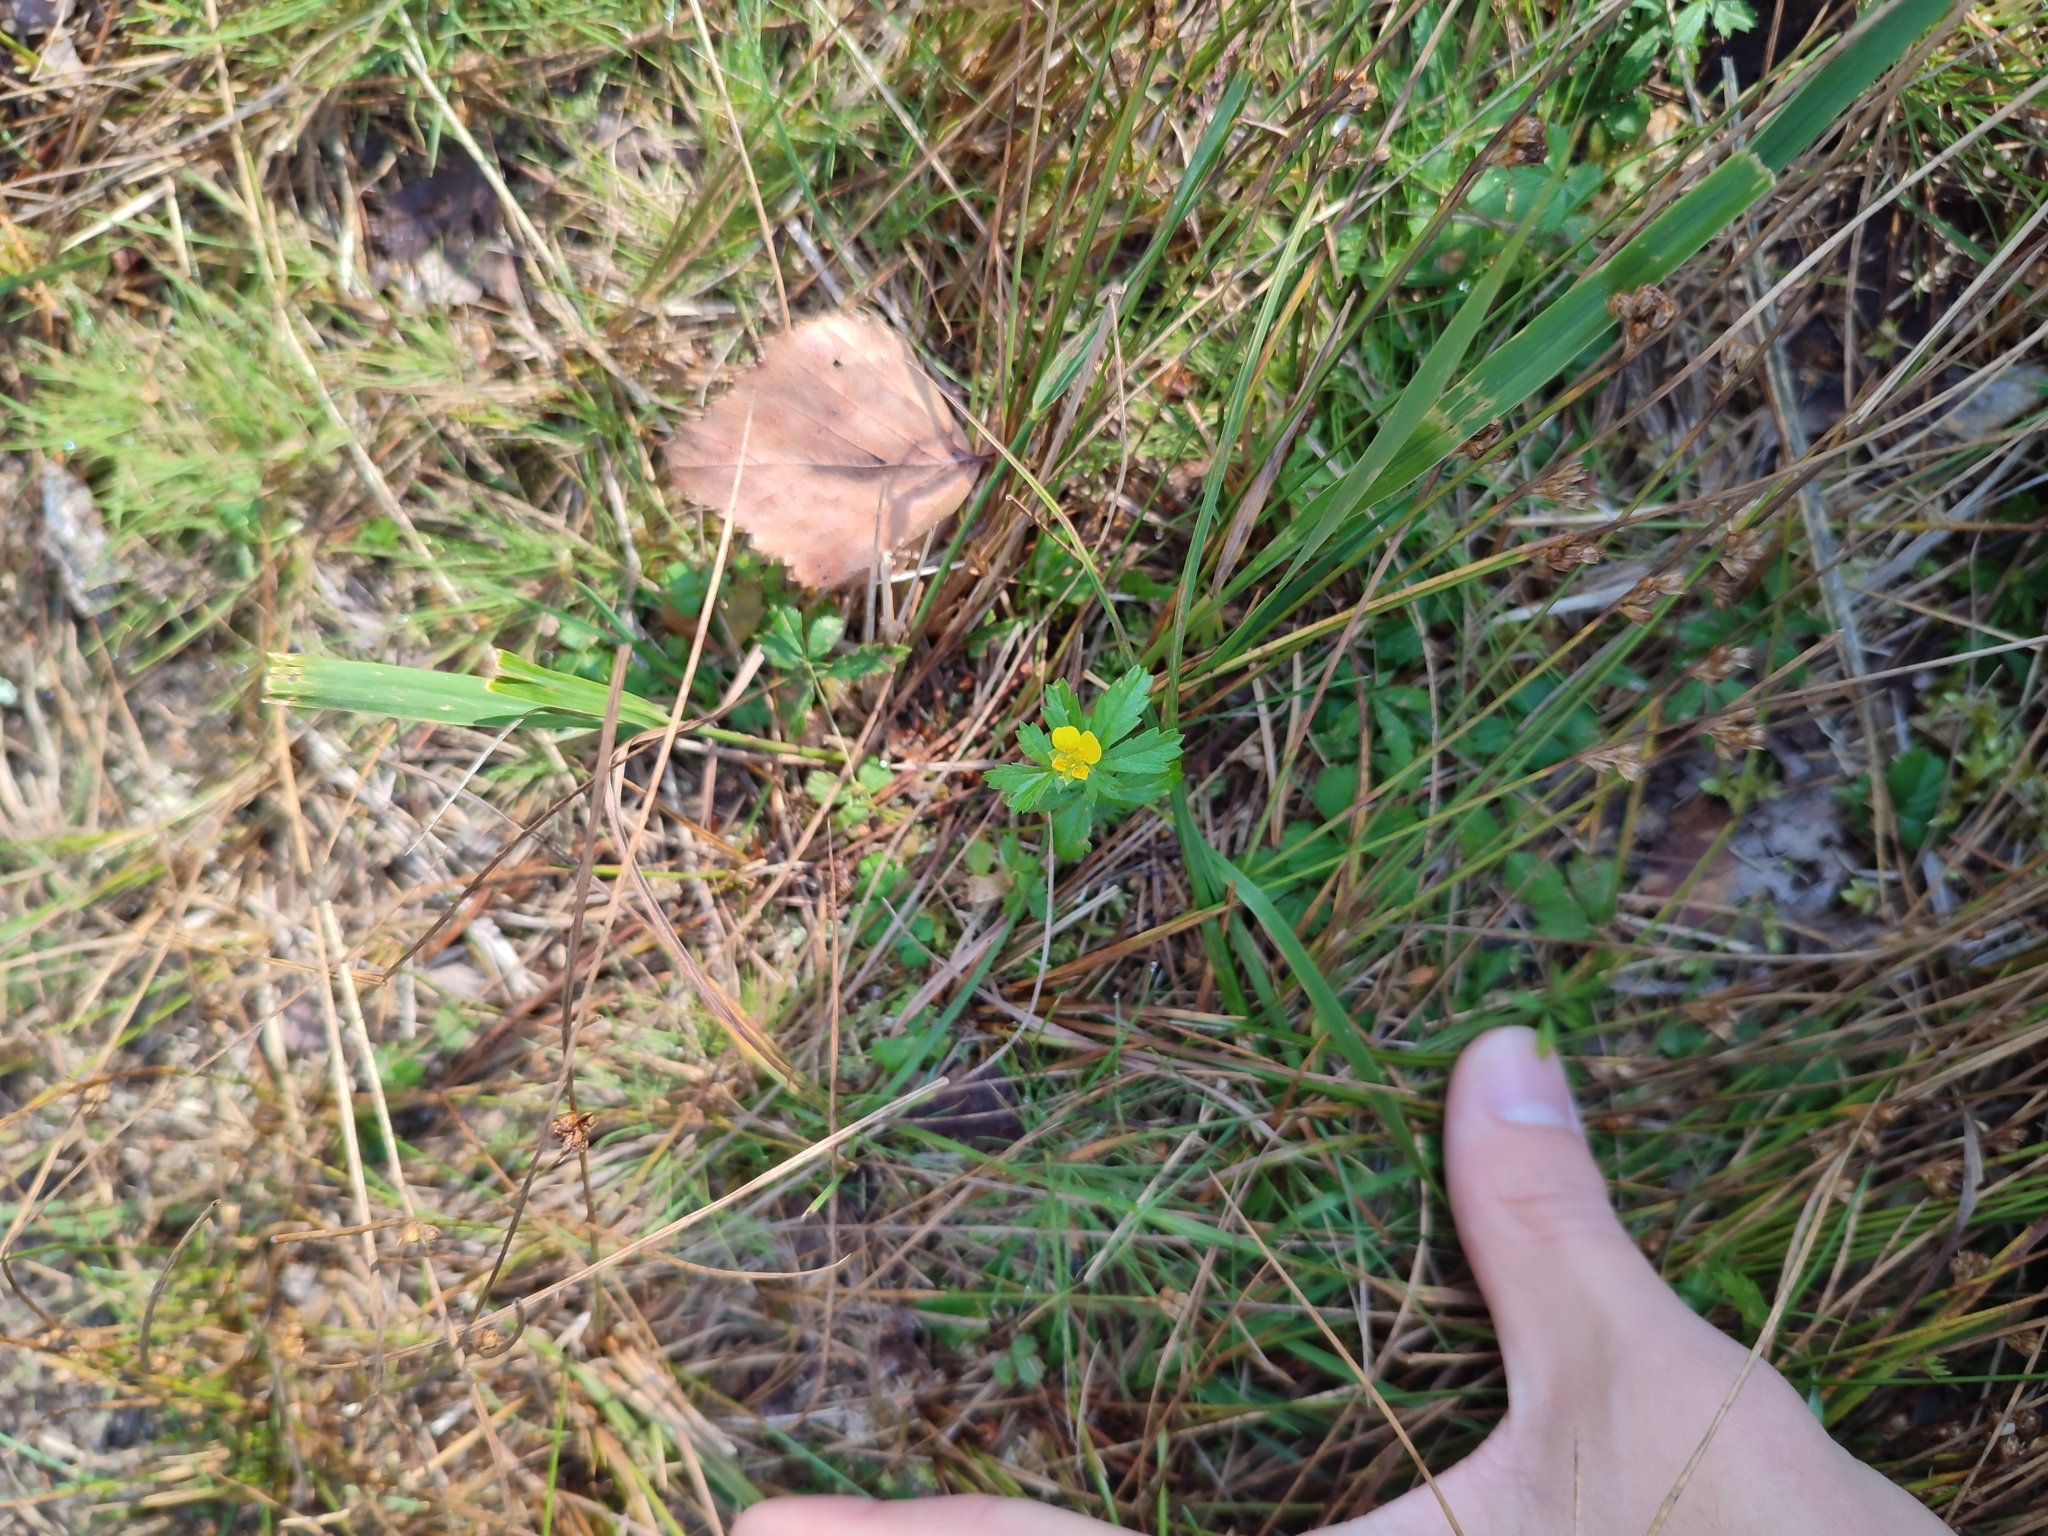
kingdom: Plantae
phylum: Tracheophyta
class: Magnoliopsida
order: Rosales
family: Rosaceae
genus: Potentilla
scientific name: Potentilla erecta
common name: Tormentil
